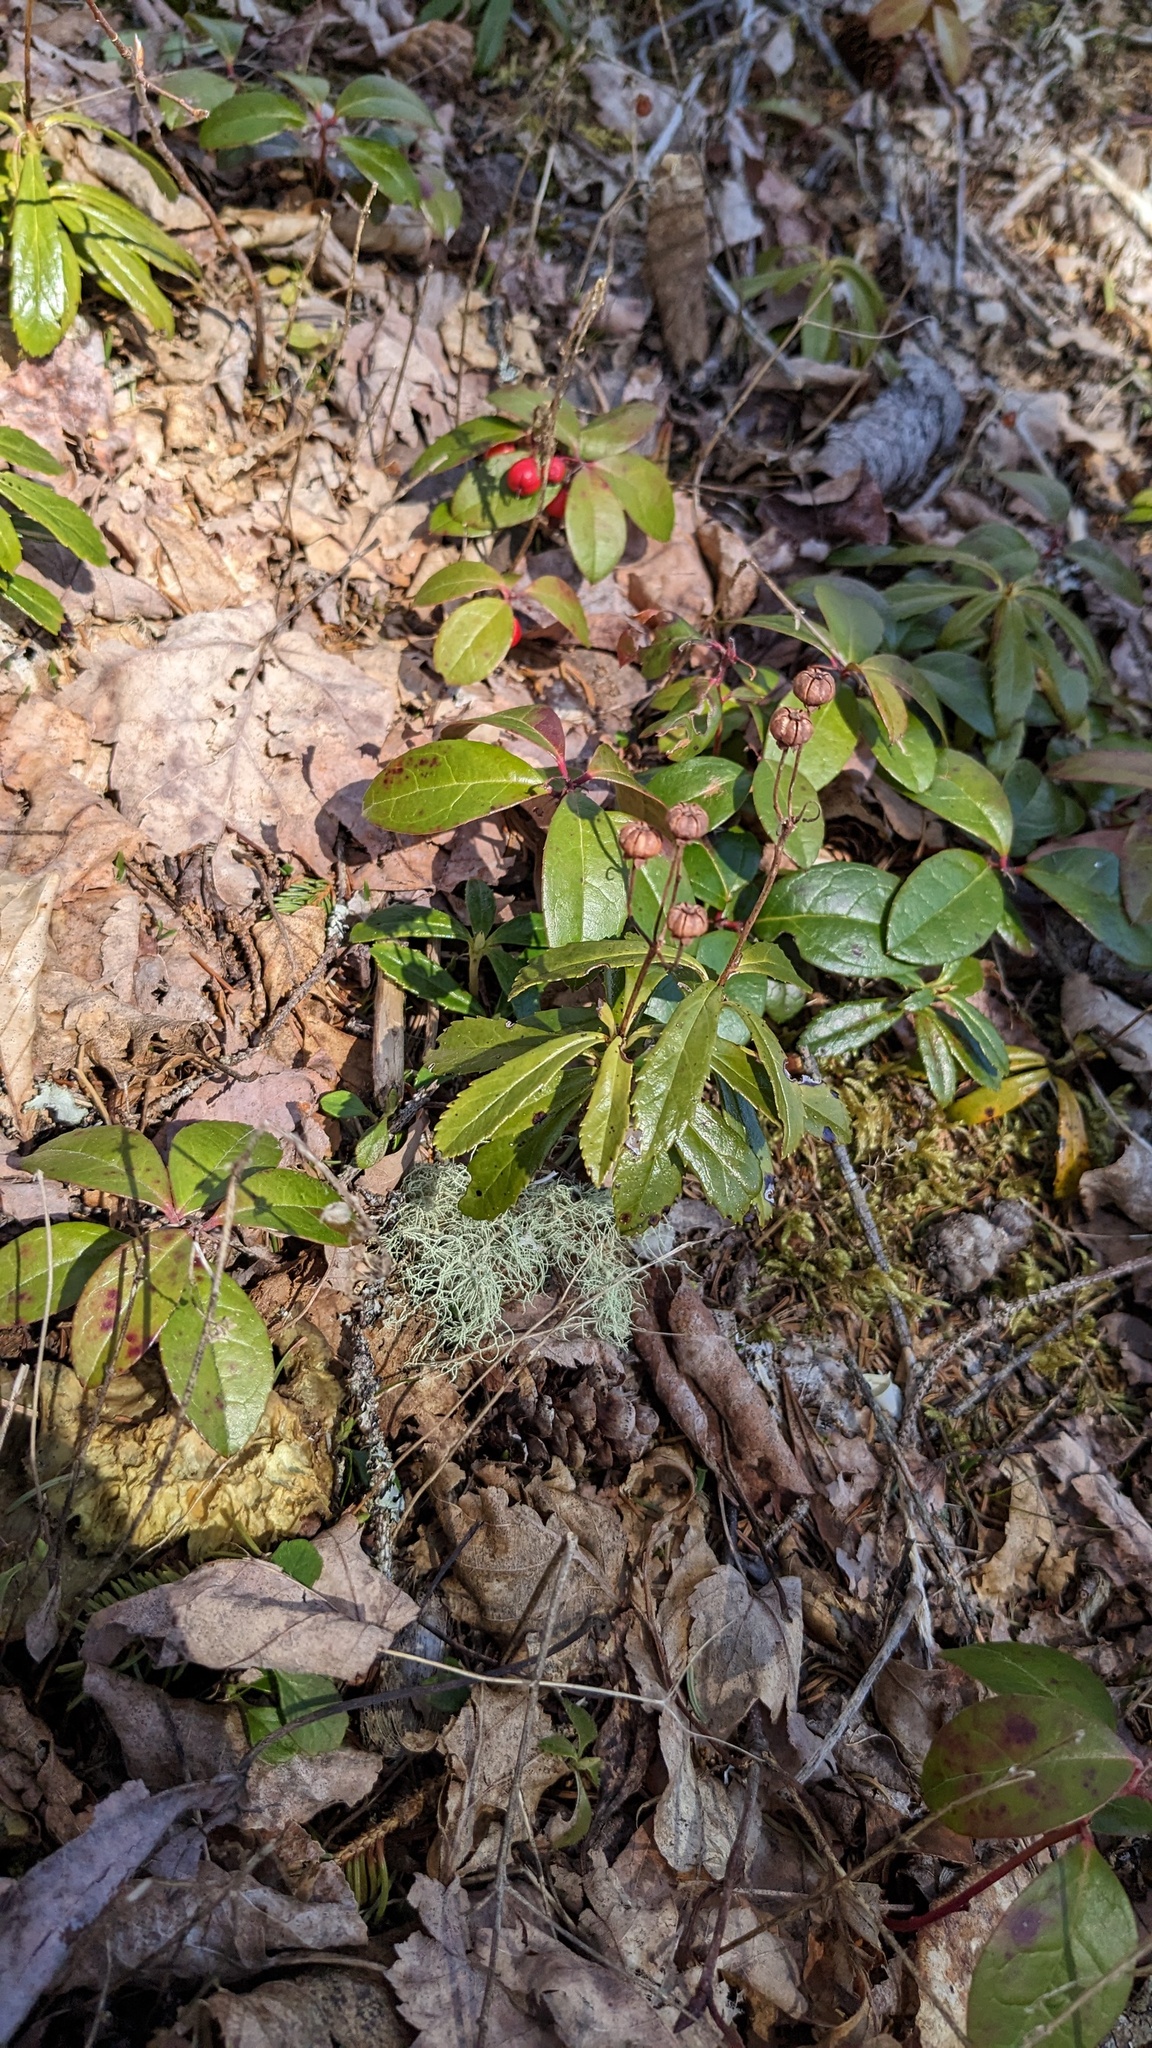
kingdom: Plantae
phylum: Tracheophyta
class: Magnoliopsida
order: Ericales
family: Ericaceae
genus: Chimaphila
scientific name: Chimaphila umbellata
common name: Pipsissewa
